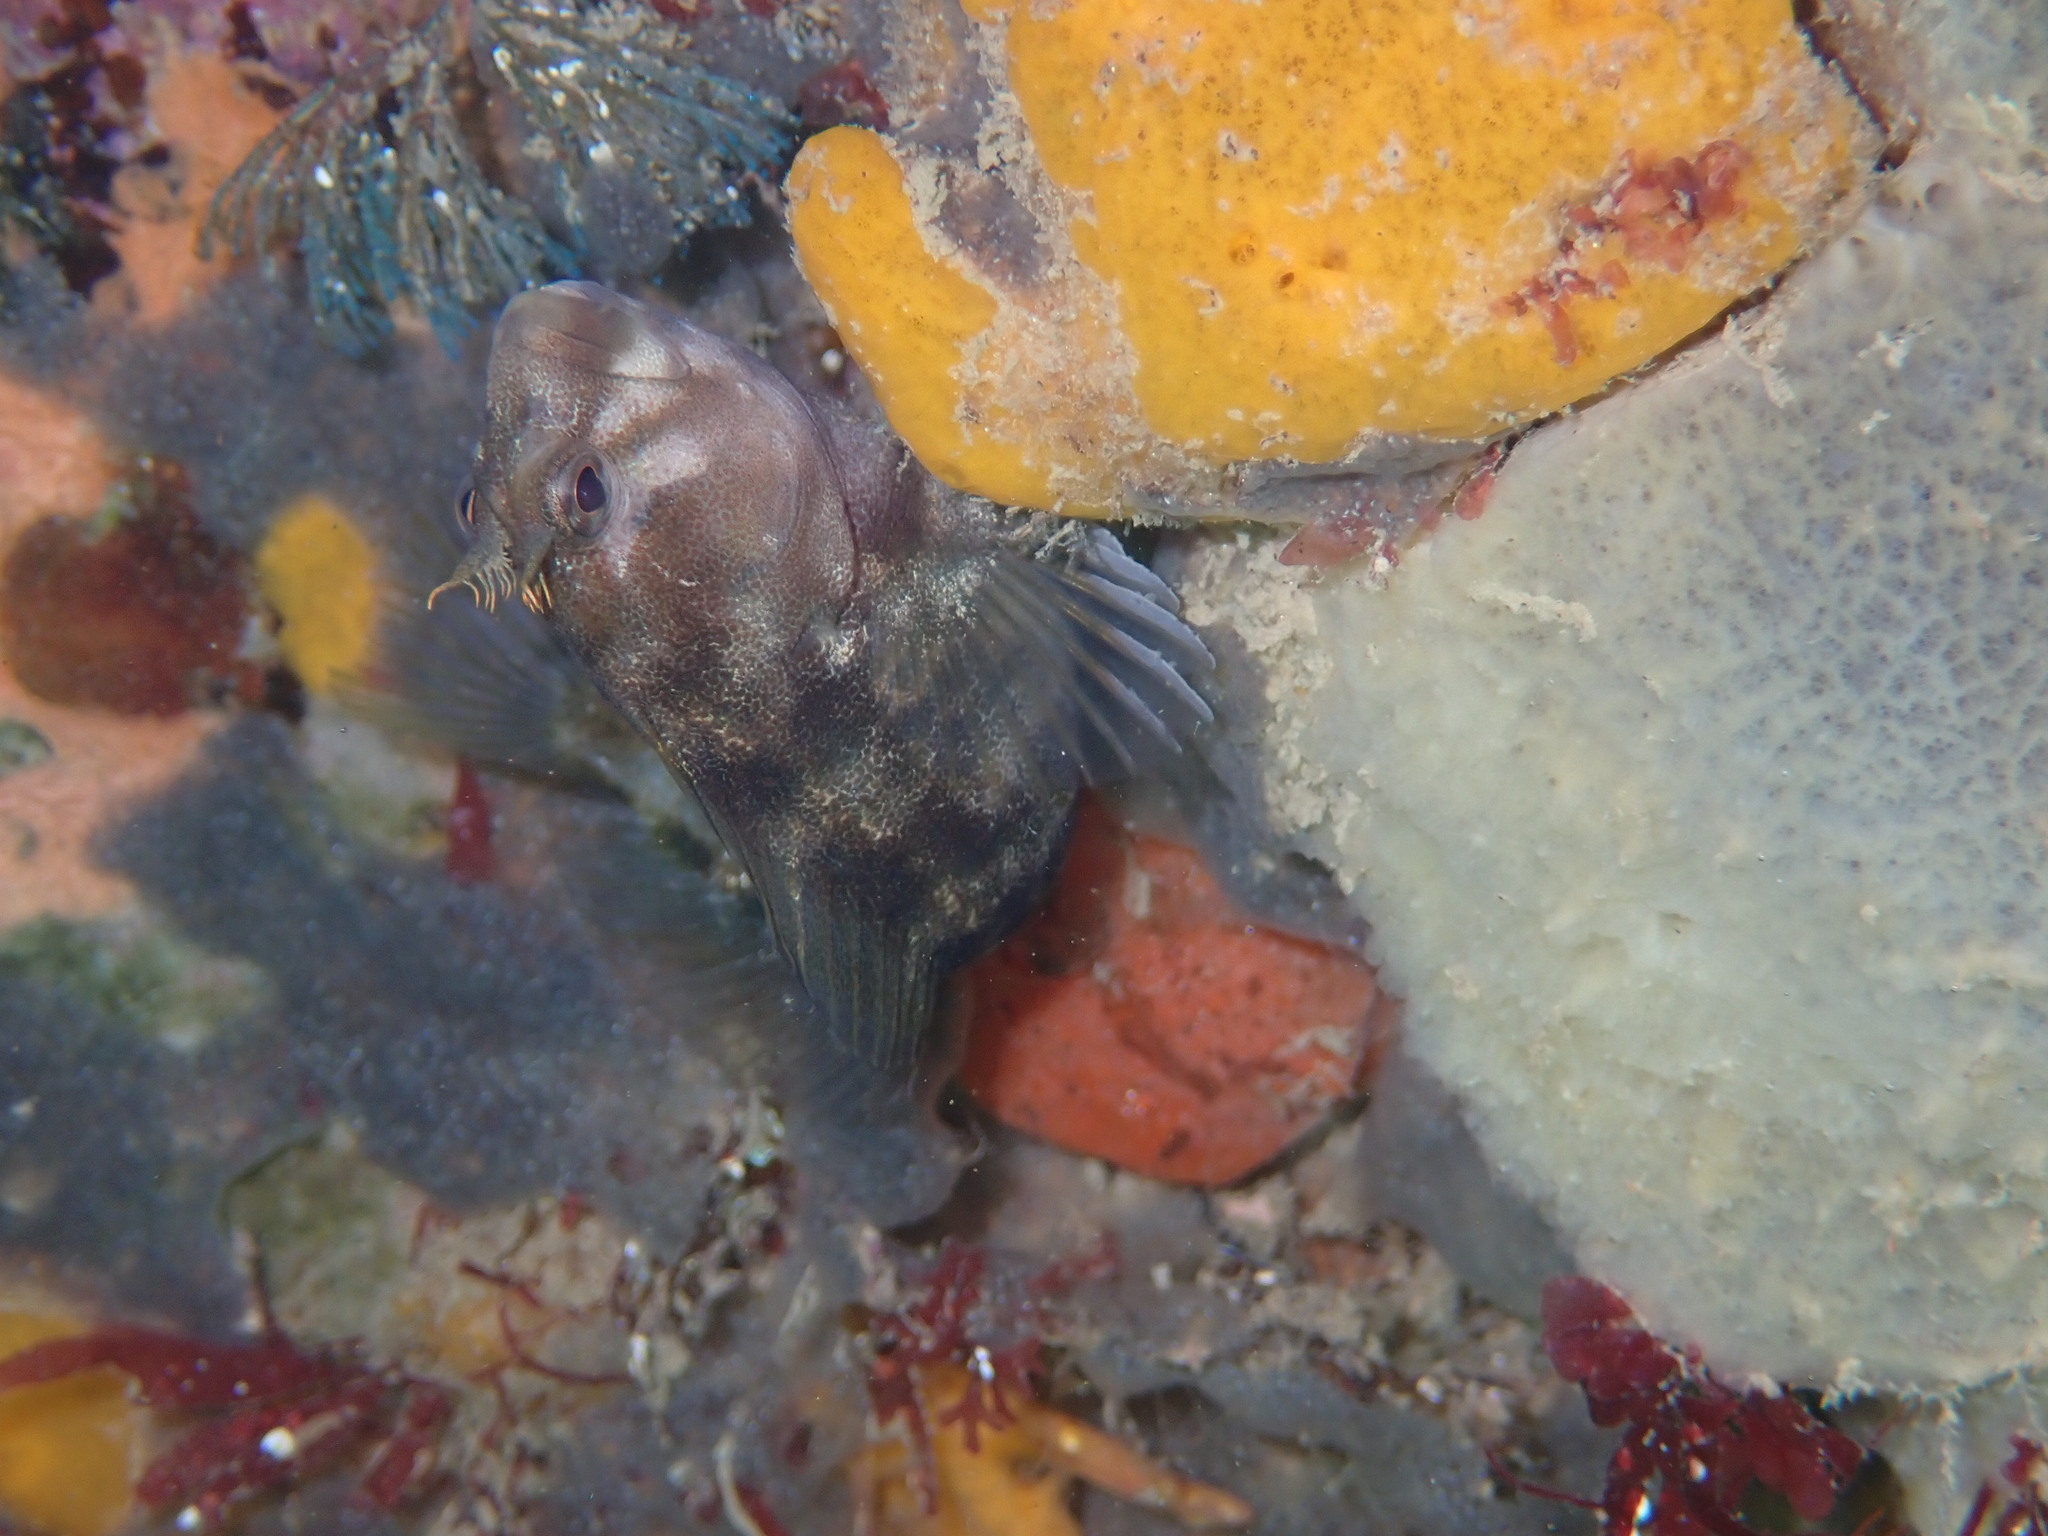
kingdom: Animalia
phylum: Chordata
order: Perciformes
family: Blenniidae
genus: Parablennius
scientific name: Parablennius tasmanianus
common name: Tasmanian blenny
